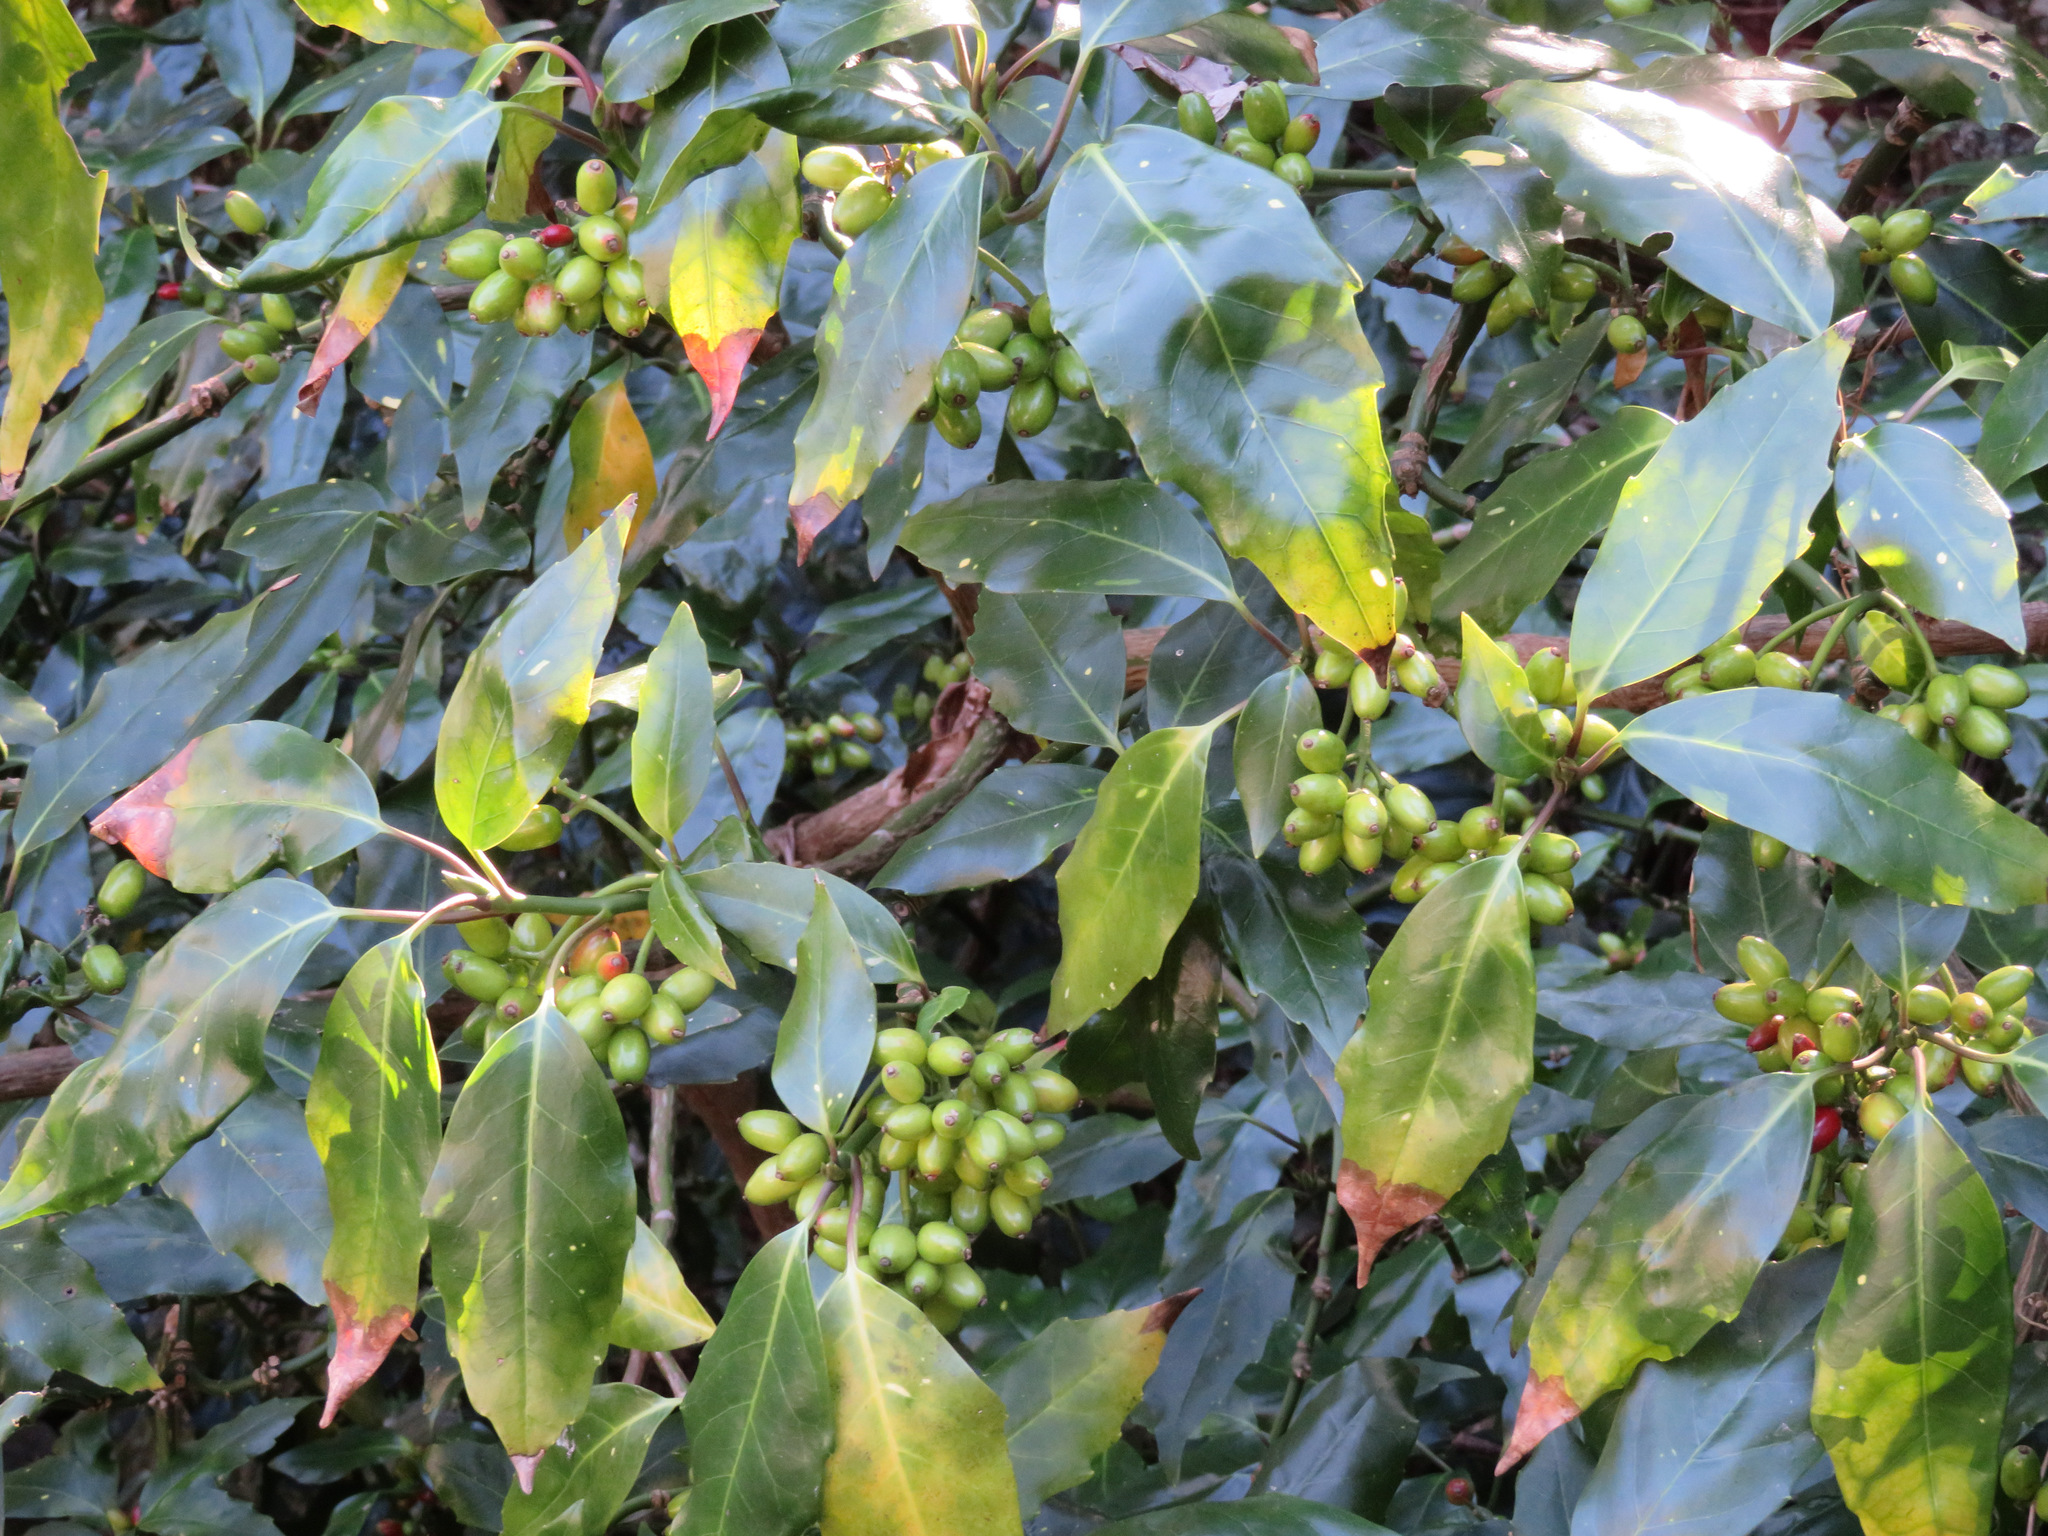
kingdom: Plantae
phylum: Tracheophyta
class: Magnoliopsida
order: Garryales
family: Garryaceae
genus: Aucuba
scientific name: Aucuba japonica
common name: Spotted-laurel
